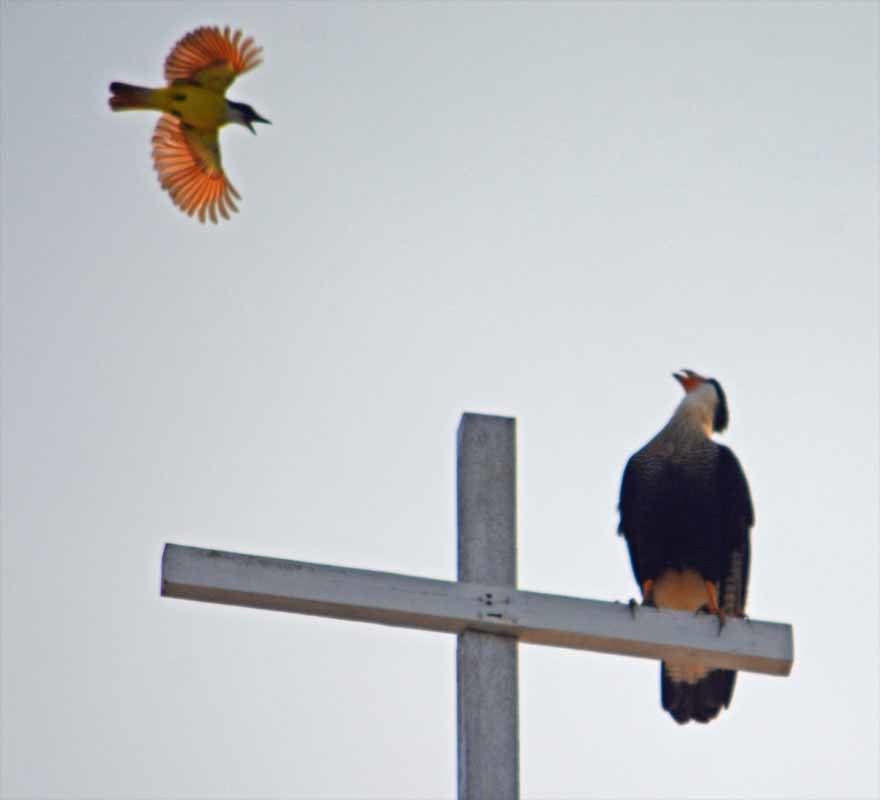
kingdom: Animalia
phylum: Chordata
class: Aves
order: Falconiformes
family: Falconidae
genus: Caracara
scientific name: Caracara plancus
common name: Southern caracara
